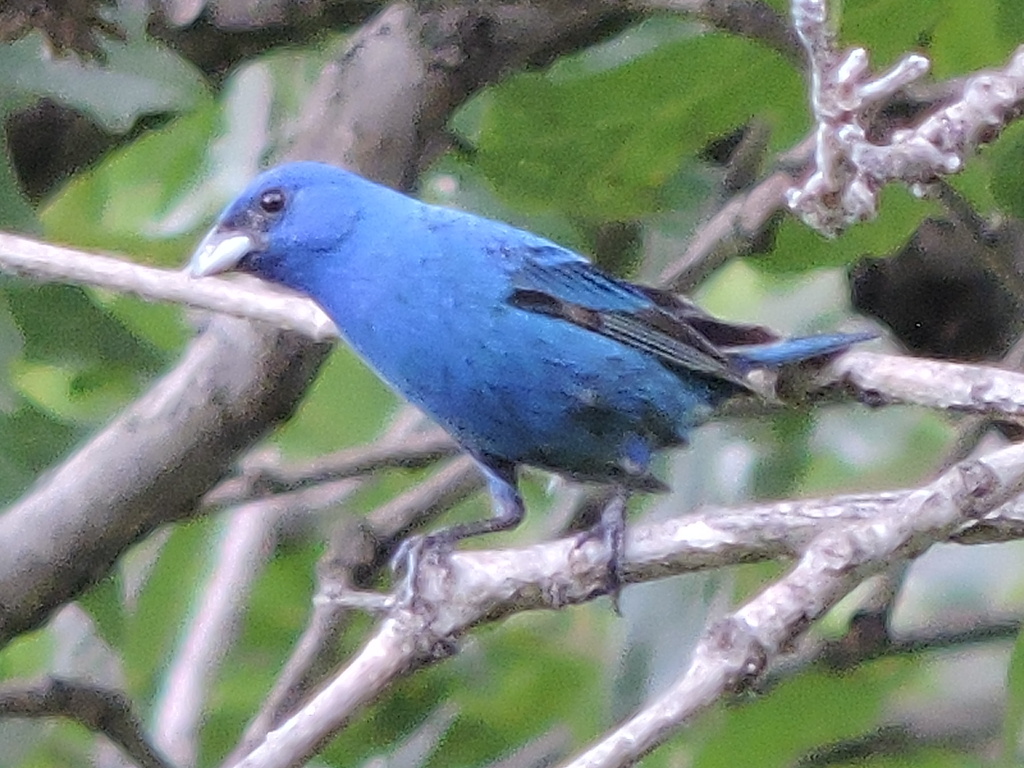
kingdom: Animalia
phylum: Chordata
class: Aves
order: Passeriformes
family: Cardinalidae
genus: Passerina
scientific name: Passerina cyanea
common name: Indigo bunting
